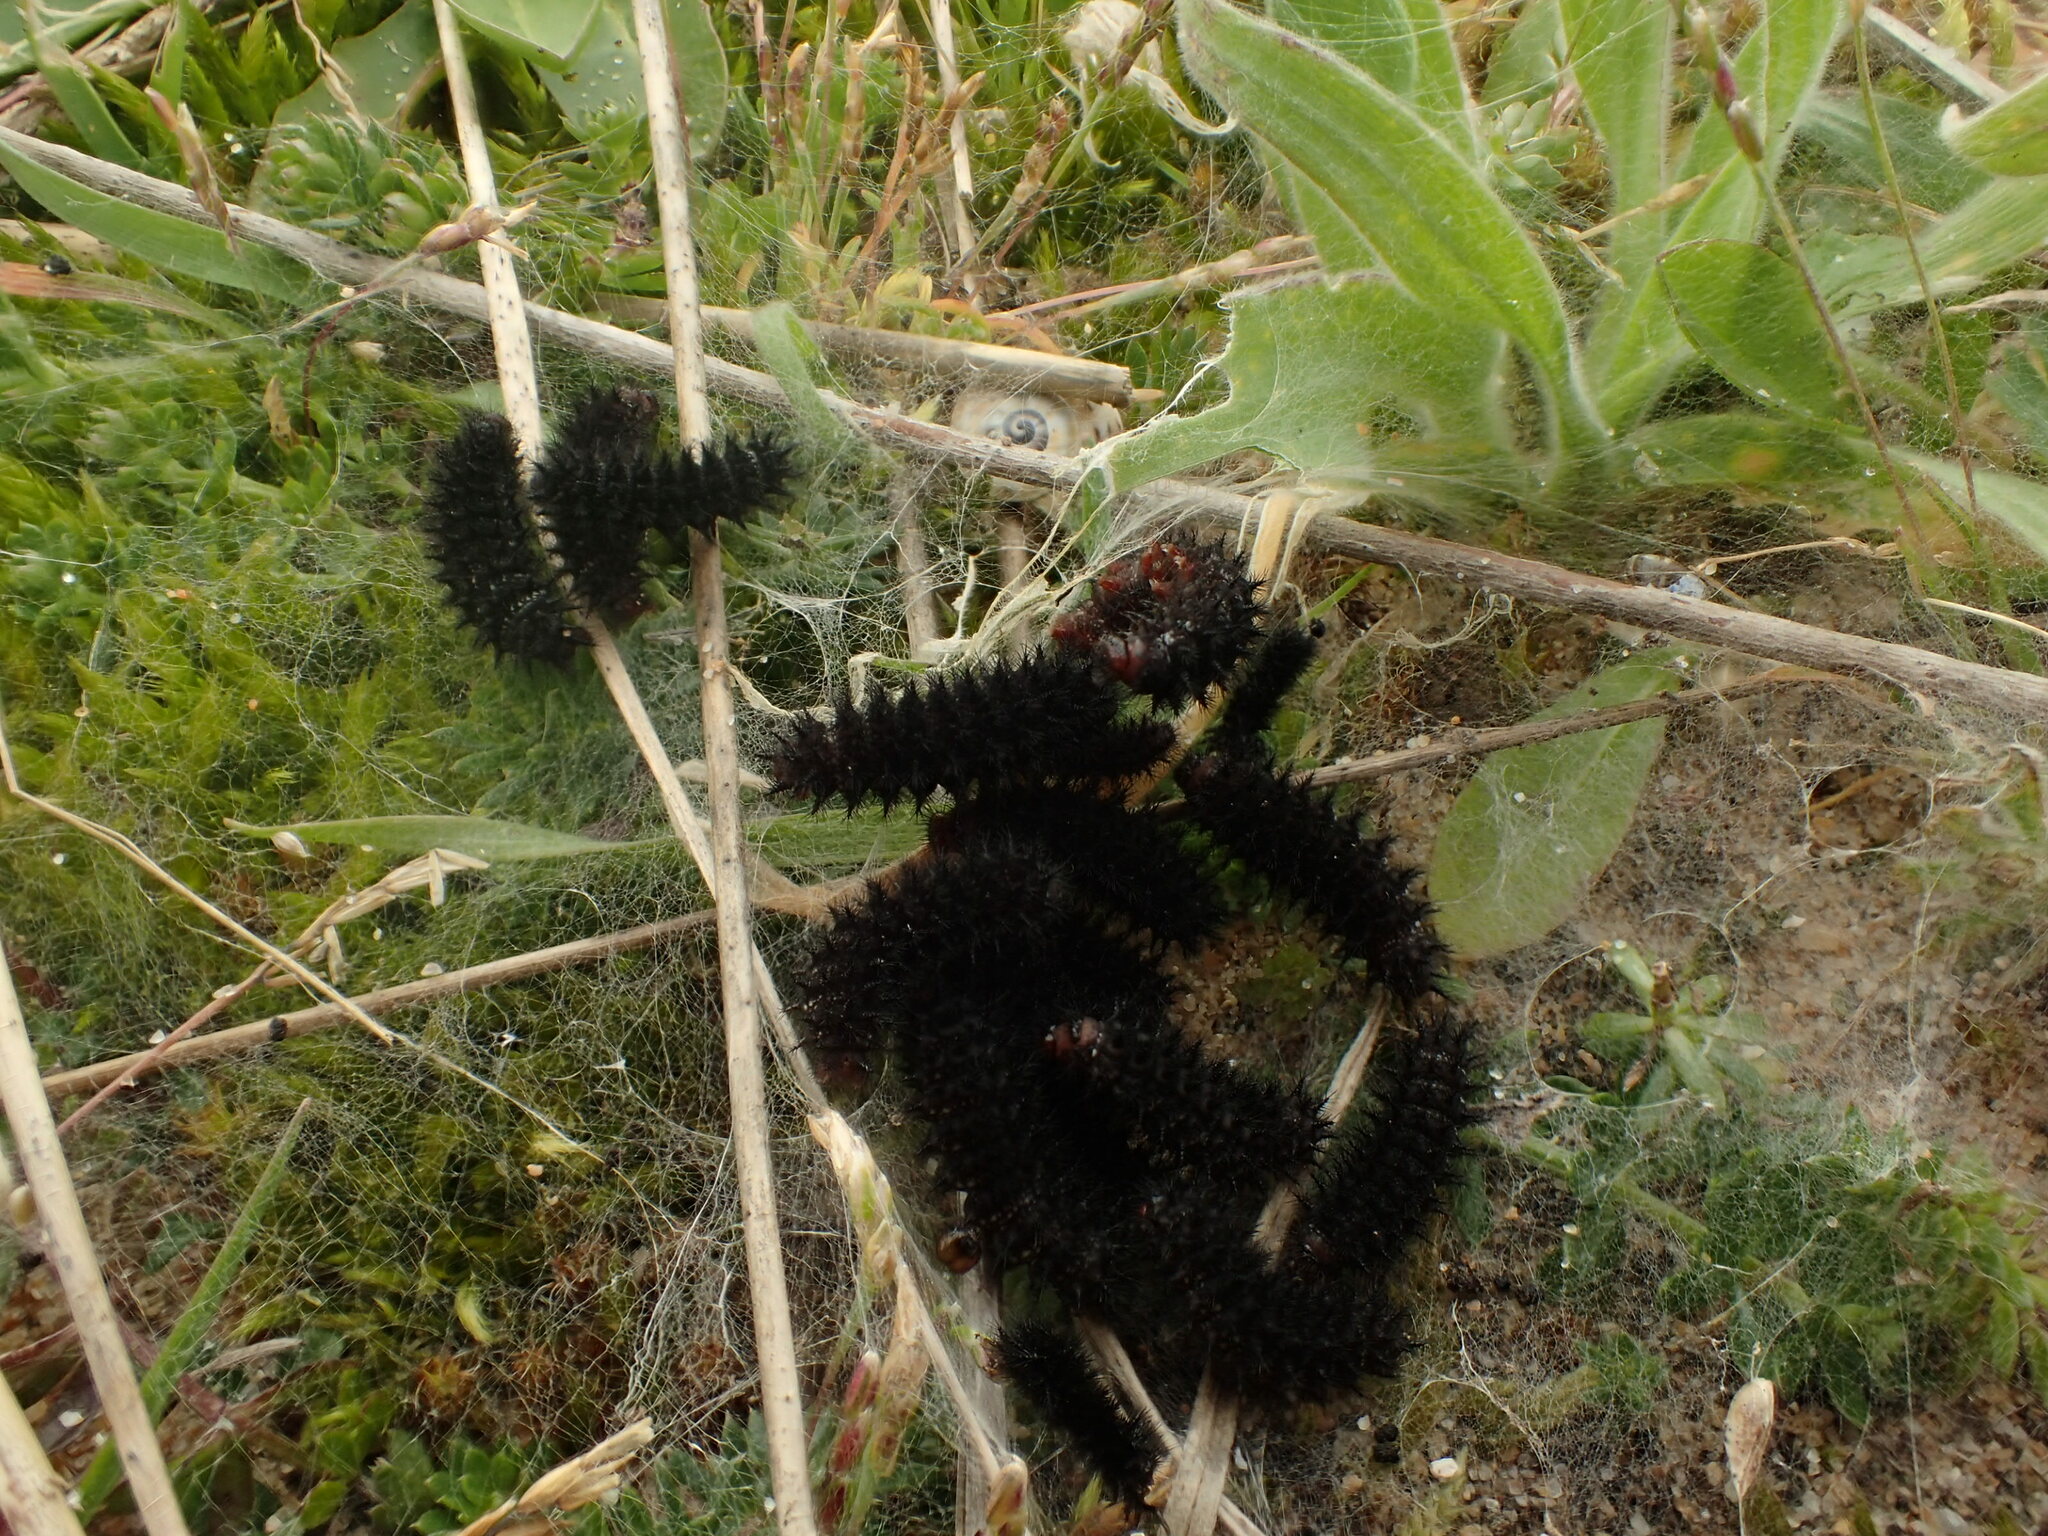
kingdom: Animalia
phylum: Arthropoda
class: Insecta
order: Lepidoptera
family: Nymphalidae
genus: Melitaea
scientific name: Melitaea cinxia
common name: Glanville fritillary
